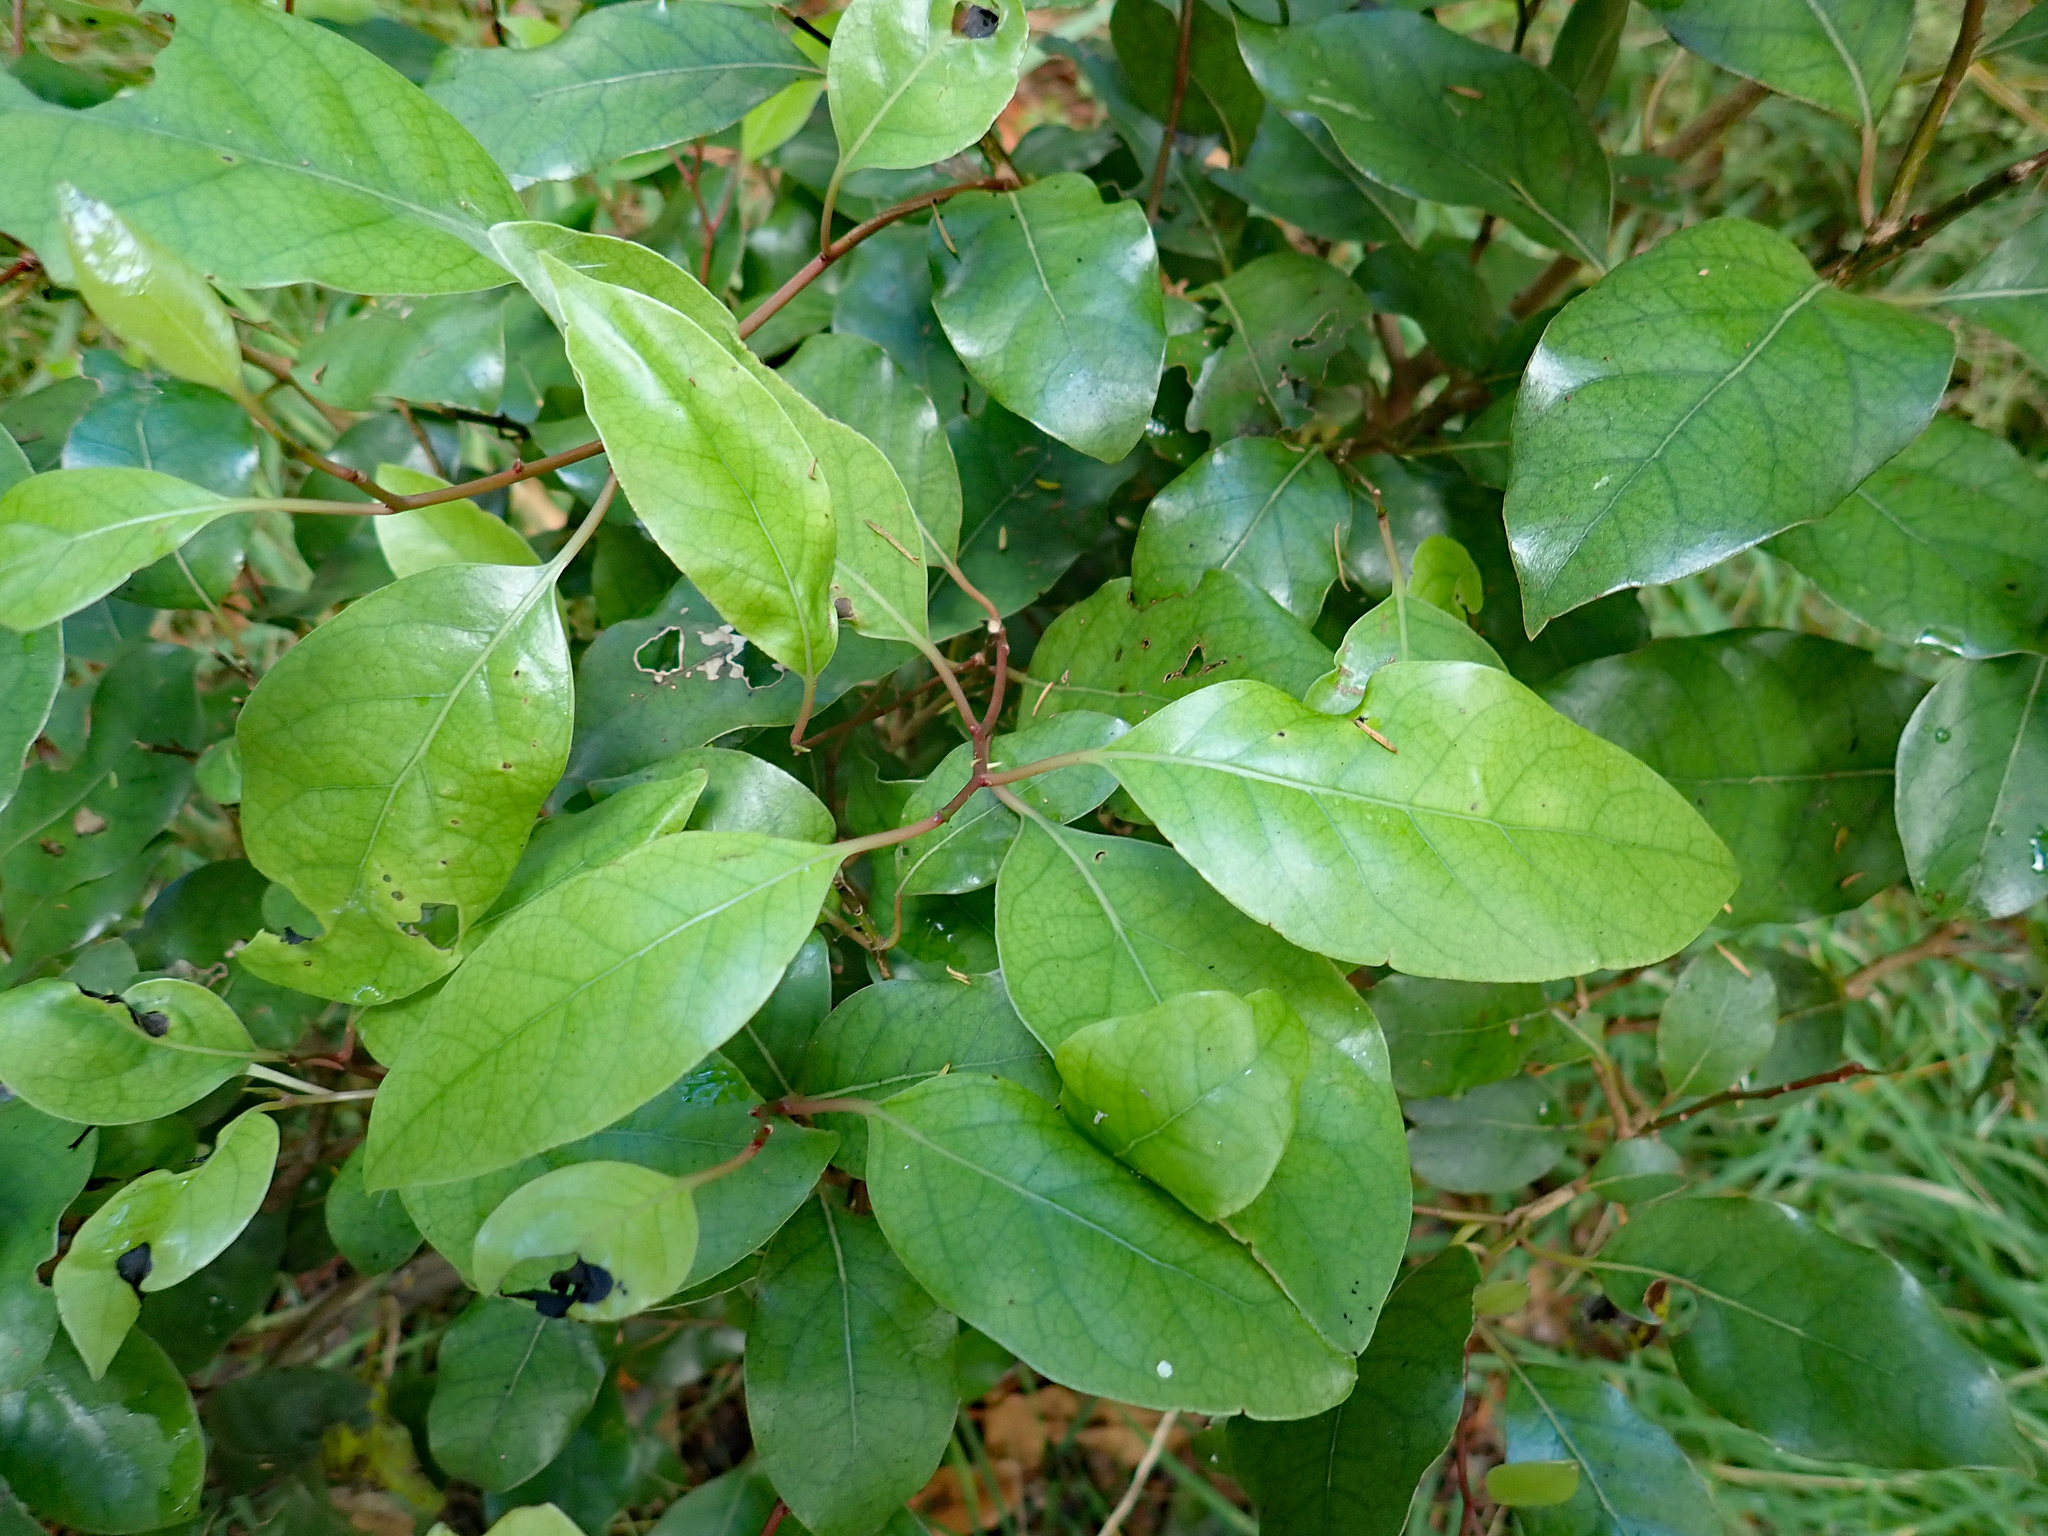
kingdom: Plantae
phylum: Tracheophyta
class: Magnoliopsida
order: Laurales
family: Lauraceae
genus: Litsea
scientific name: Litsea calicaris
